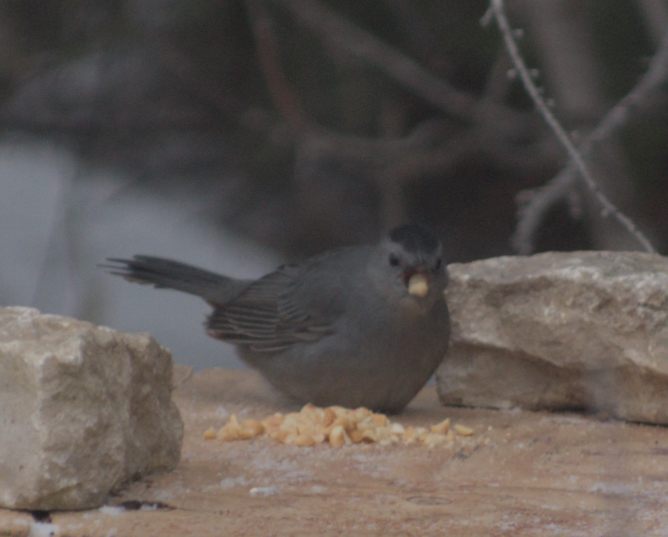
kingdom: Animalia
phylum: Chordata
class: Aves
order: Passeriformes
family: Mimidae
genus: Dumetella
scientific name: Dumetella carolinensis
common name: Gray catbird
